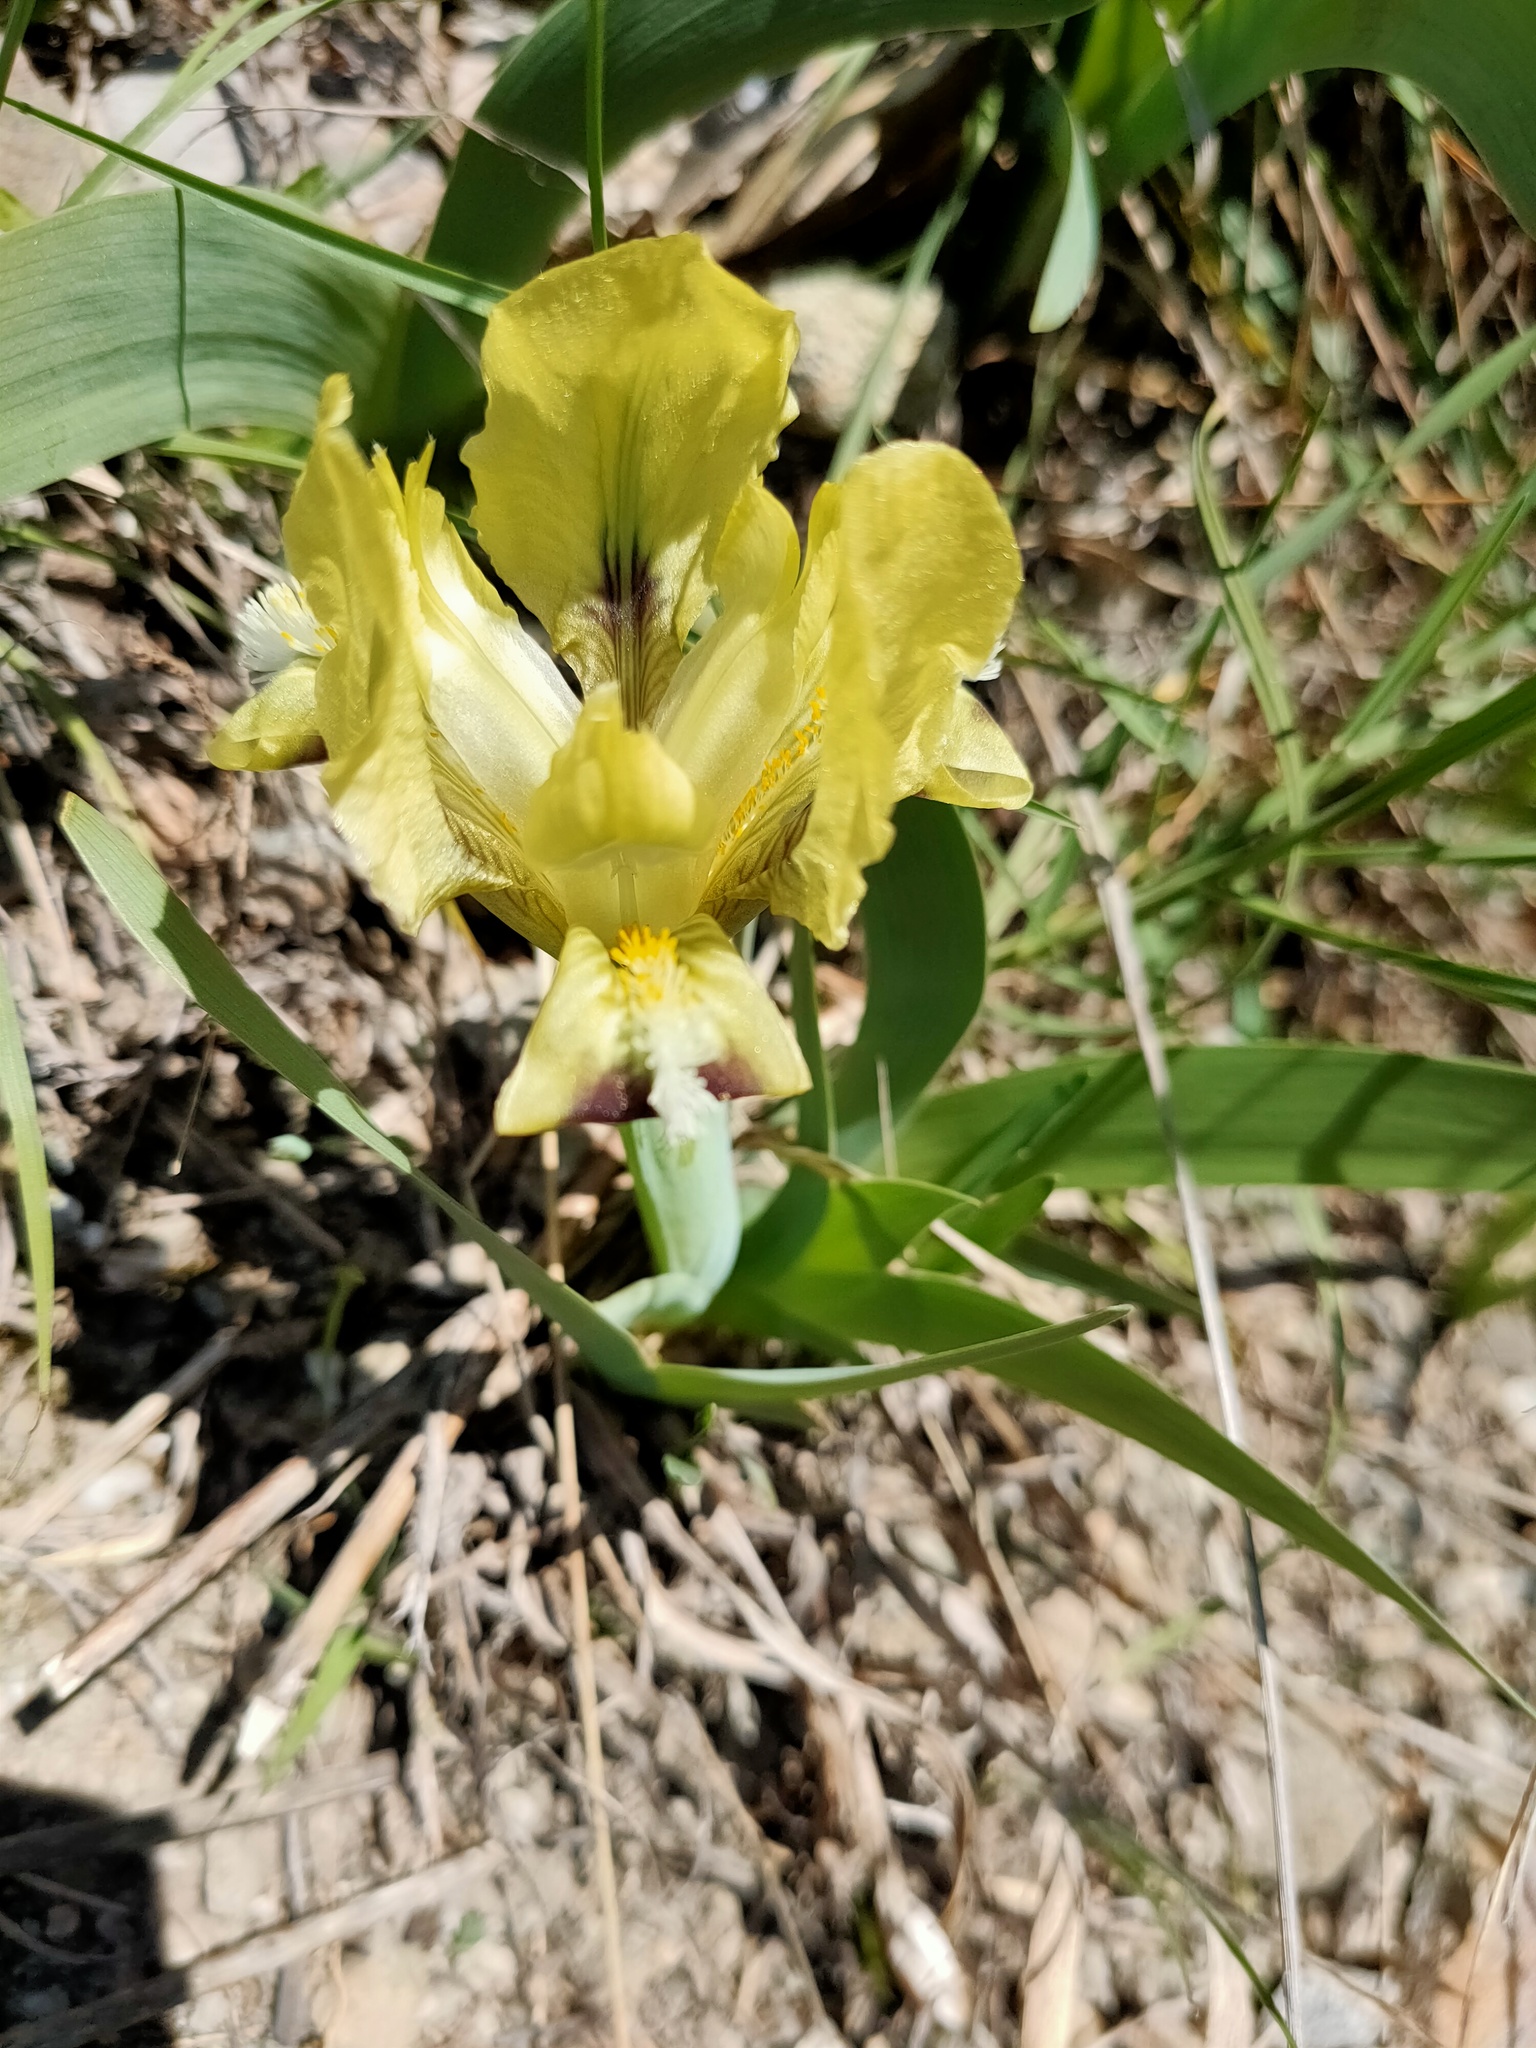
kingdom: Plantae
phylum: Tracheophyta
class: Liliopsida
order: Asparagales
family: Iridaceae
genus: Iris
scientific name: Iris pumila
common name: Dwarf iris
